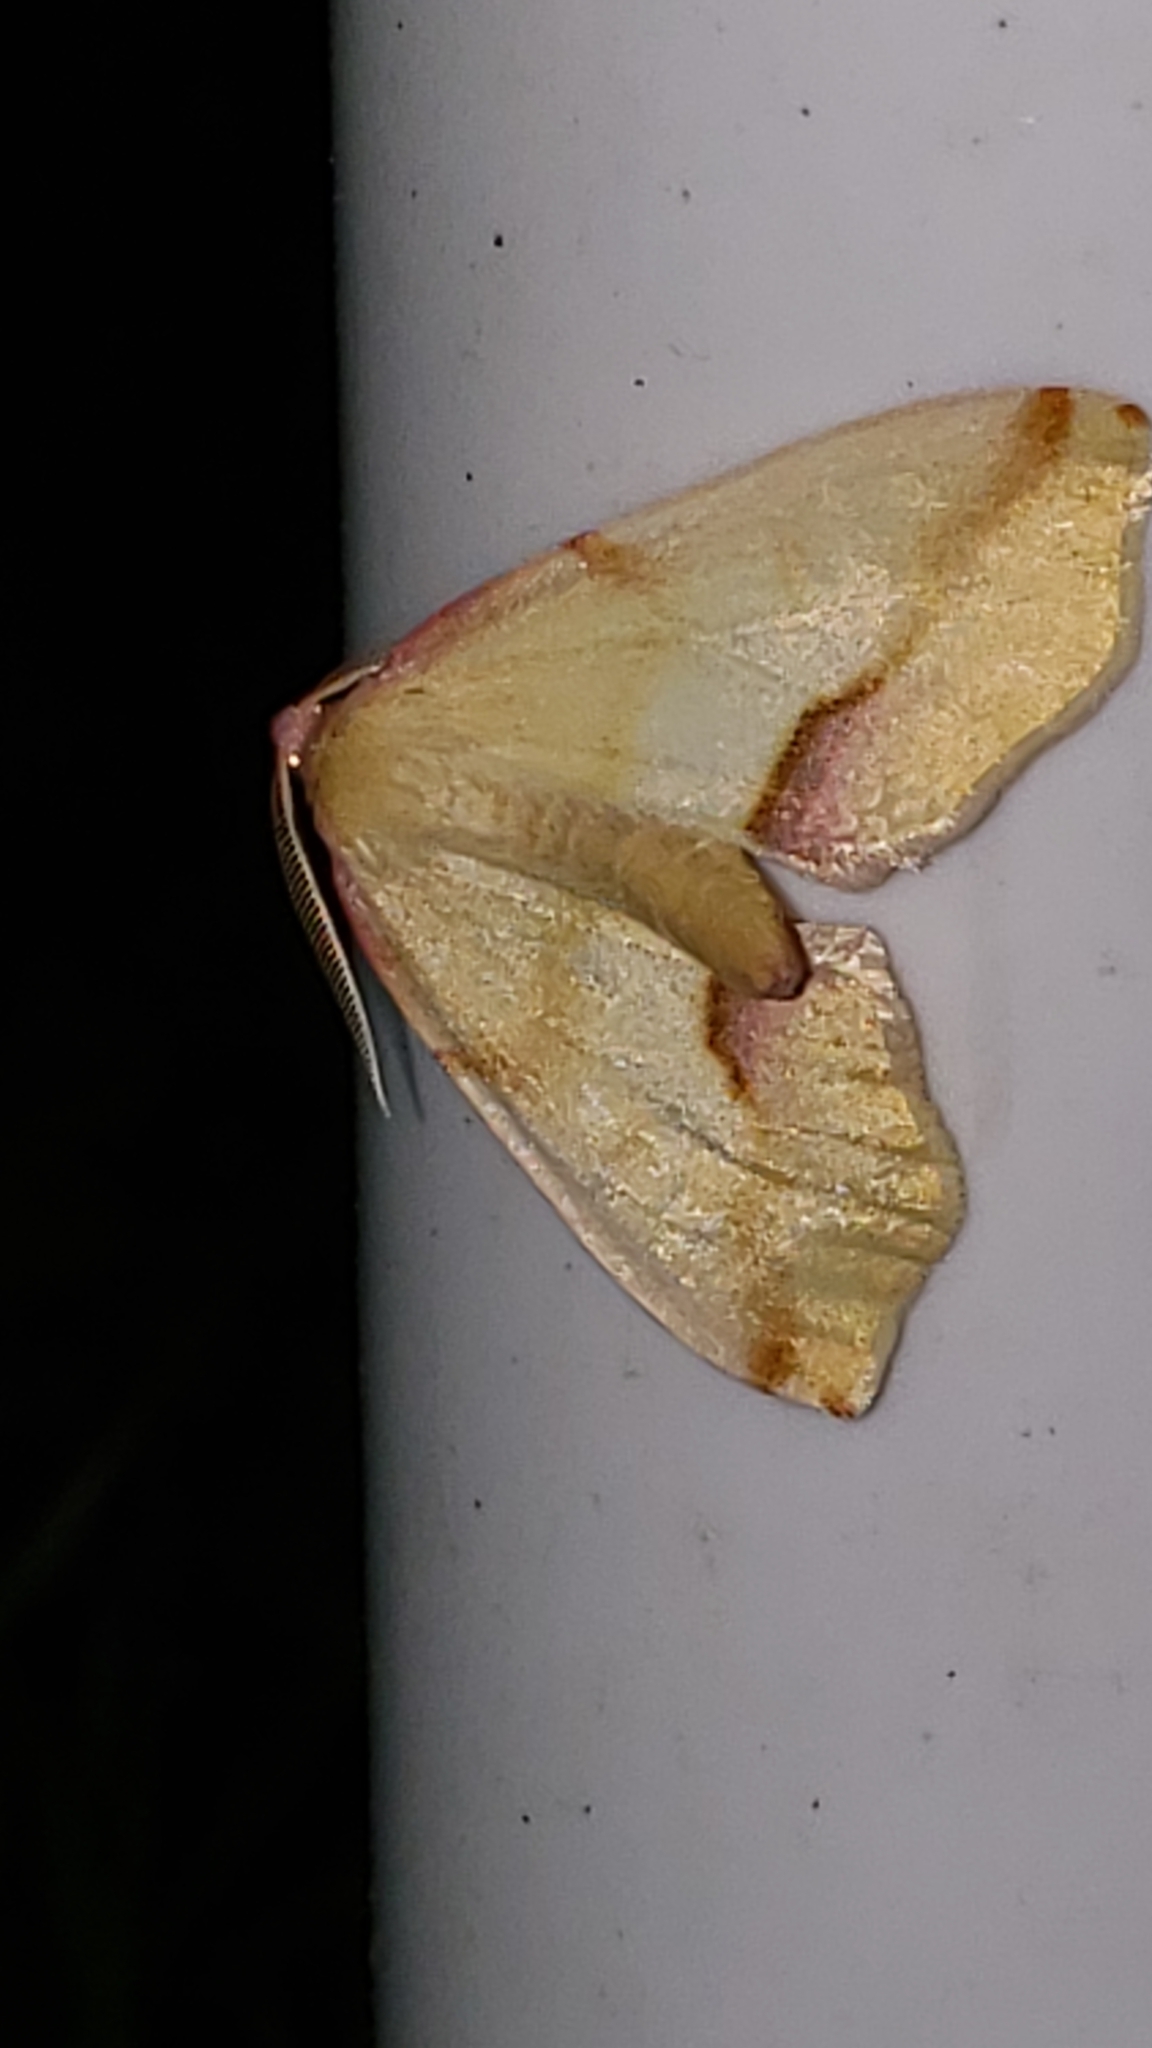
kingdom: Animalia
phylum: Arthropoda
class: Insecta
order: Lepidoptera
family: Geometridae
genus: Plagodis
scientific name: Plagodis serinaria
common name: Lemon plagodis
